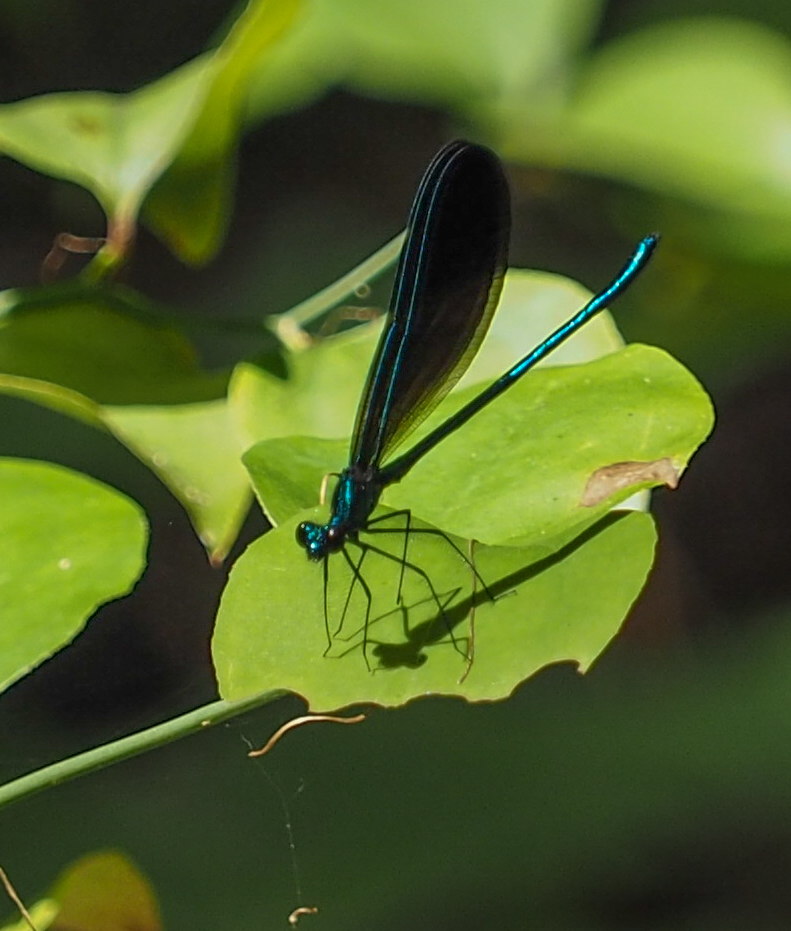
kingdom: Animalia
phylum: Arthropoda
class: Insecta
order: Odonata
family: Calopterygidae
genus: Calopteryx
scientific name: Calopteryx maculata
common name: Ebony jewelwing
